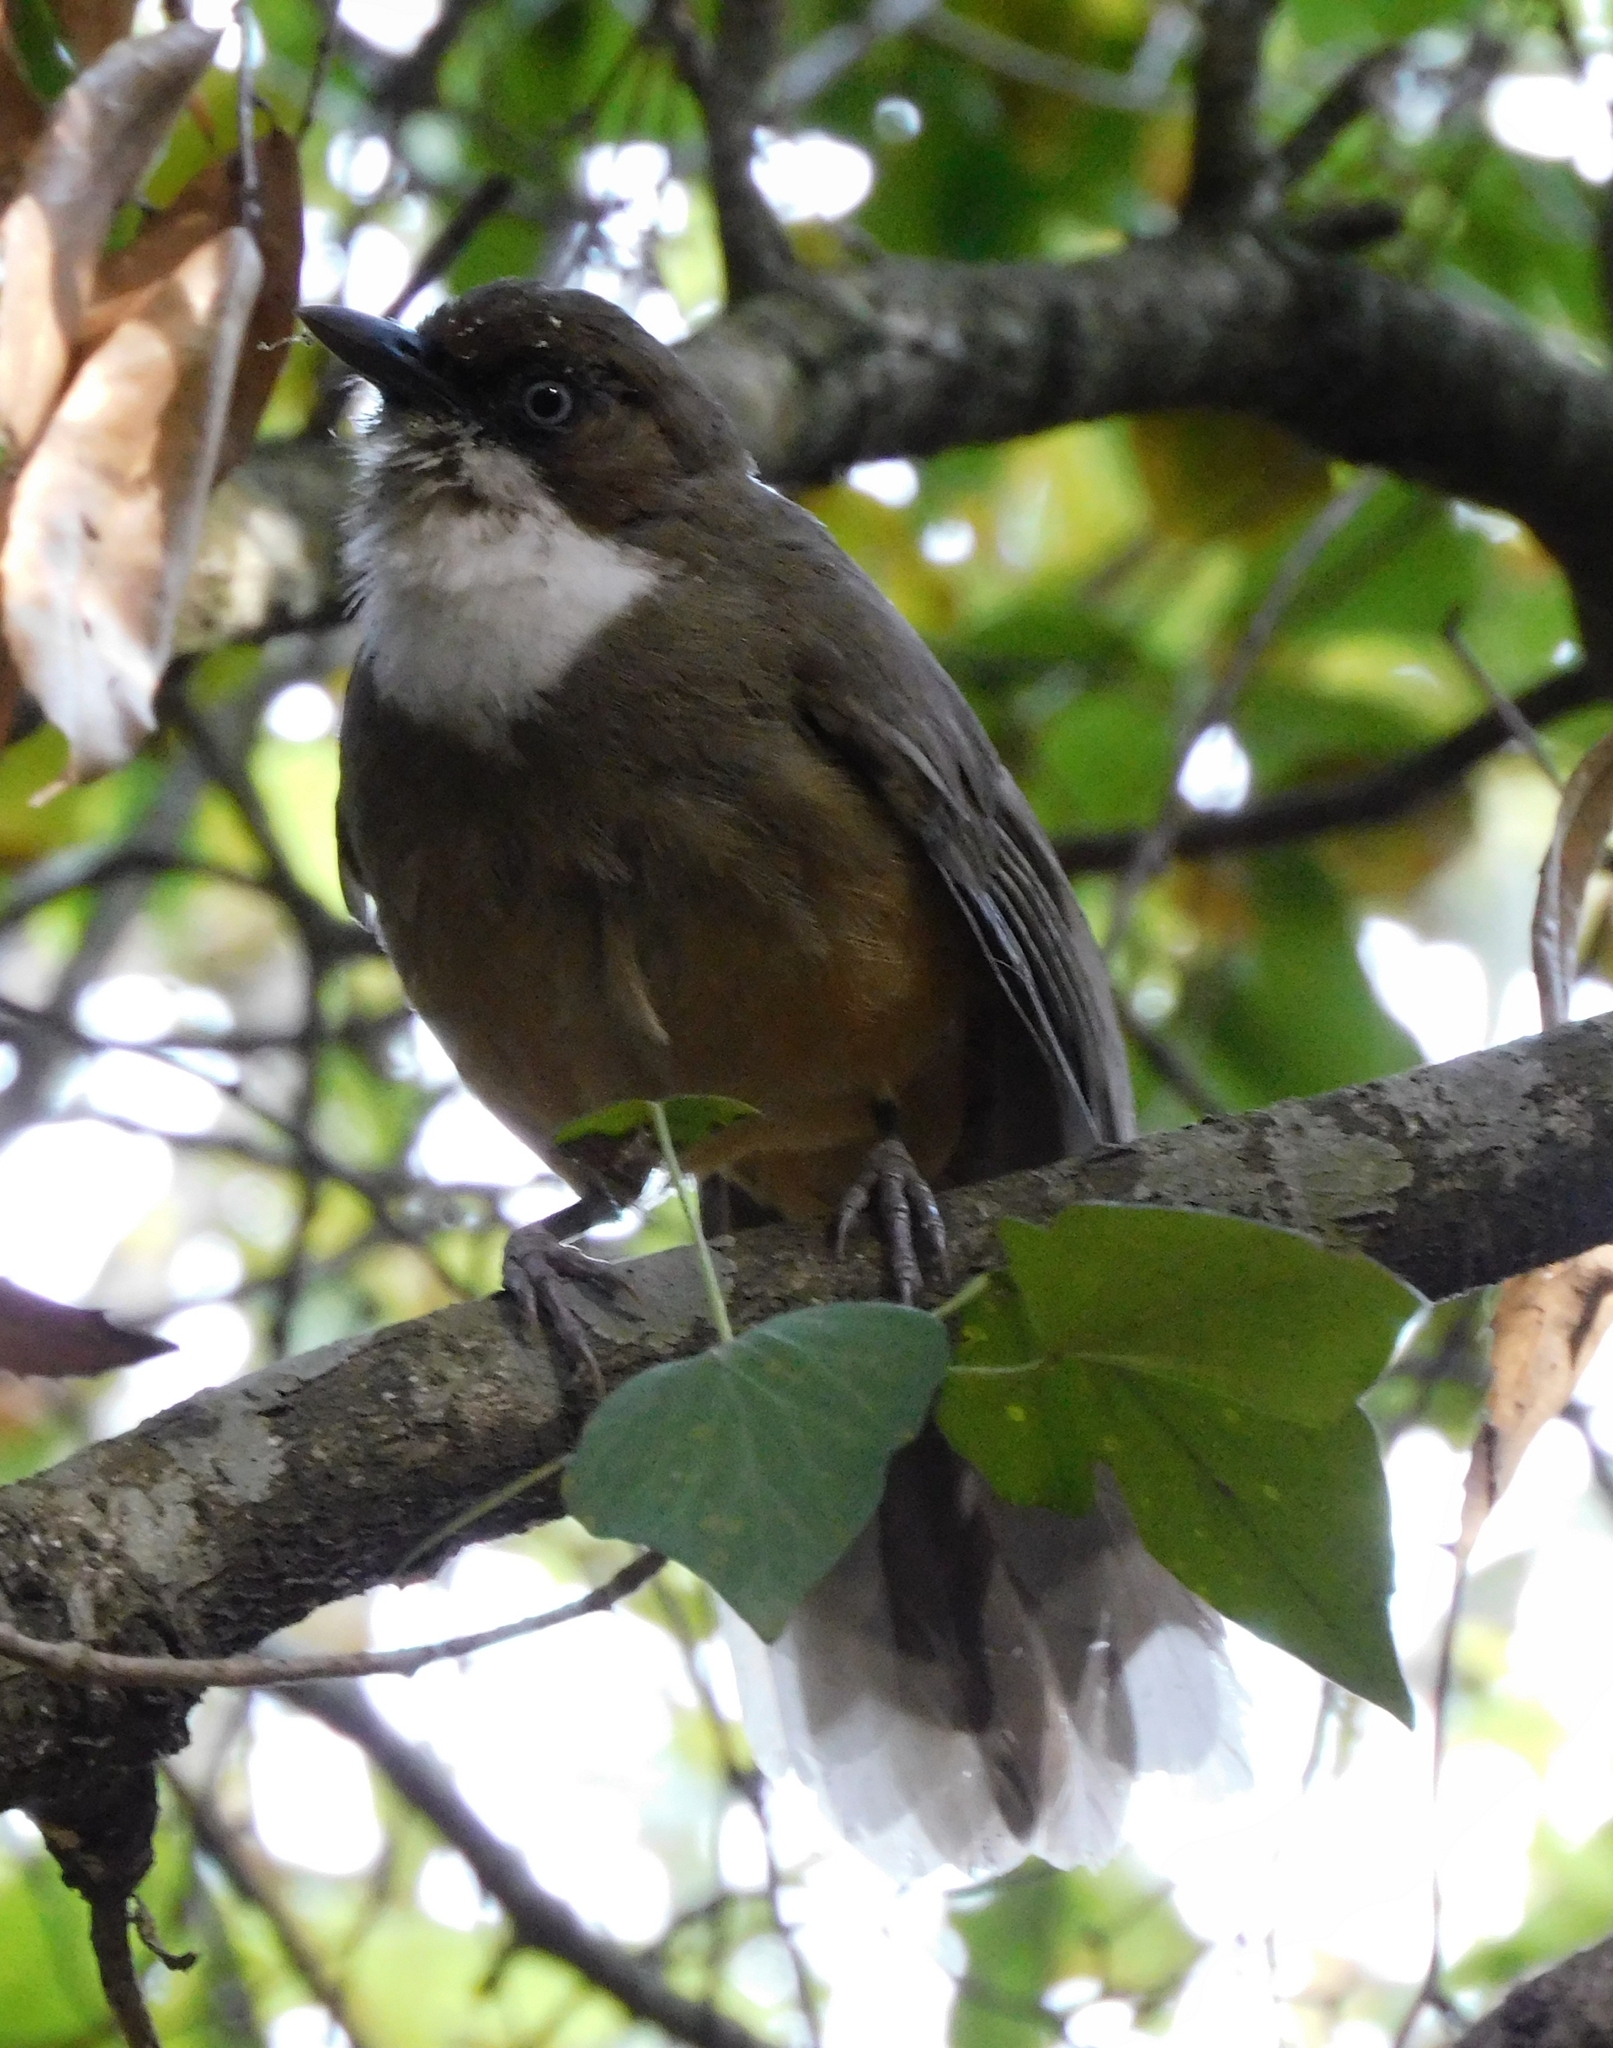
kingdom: Animalia
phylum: Chordata
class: Aves
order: Passeriformes
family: Leiothrichidae
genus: Garrulax
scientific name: Garrulax albogularis
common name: White-throated laughingthrush
